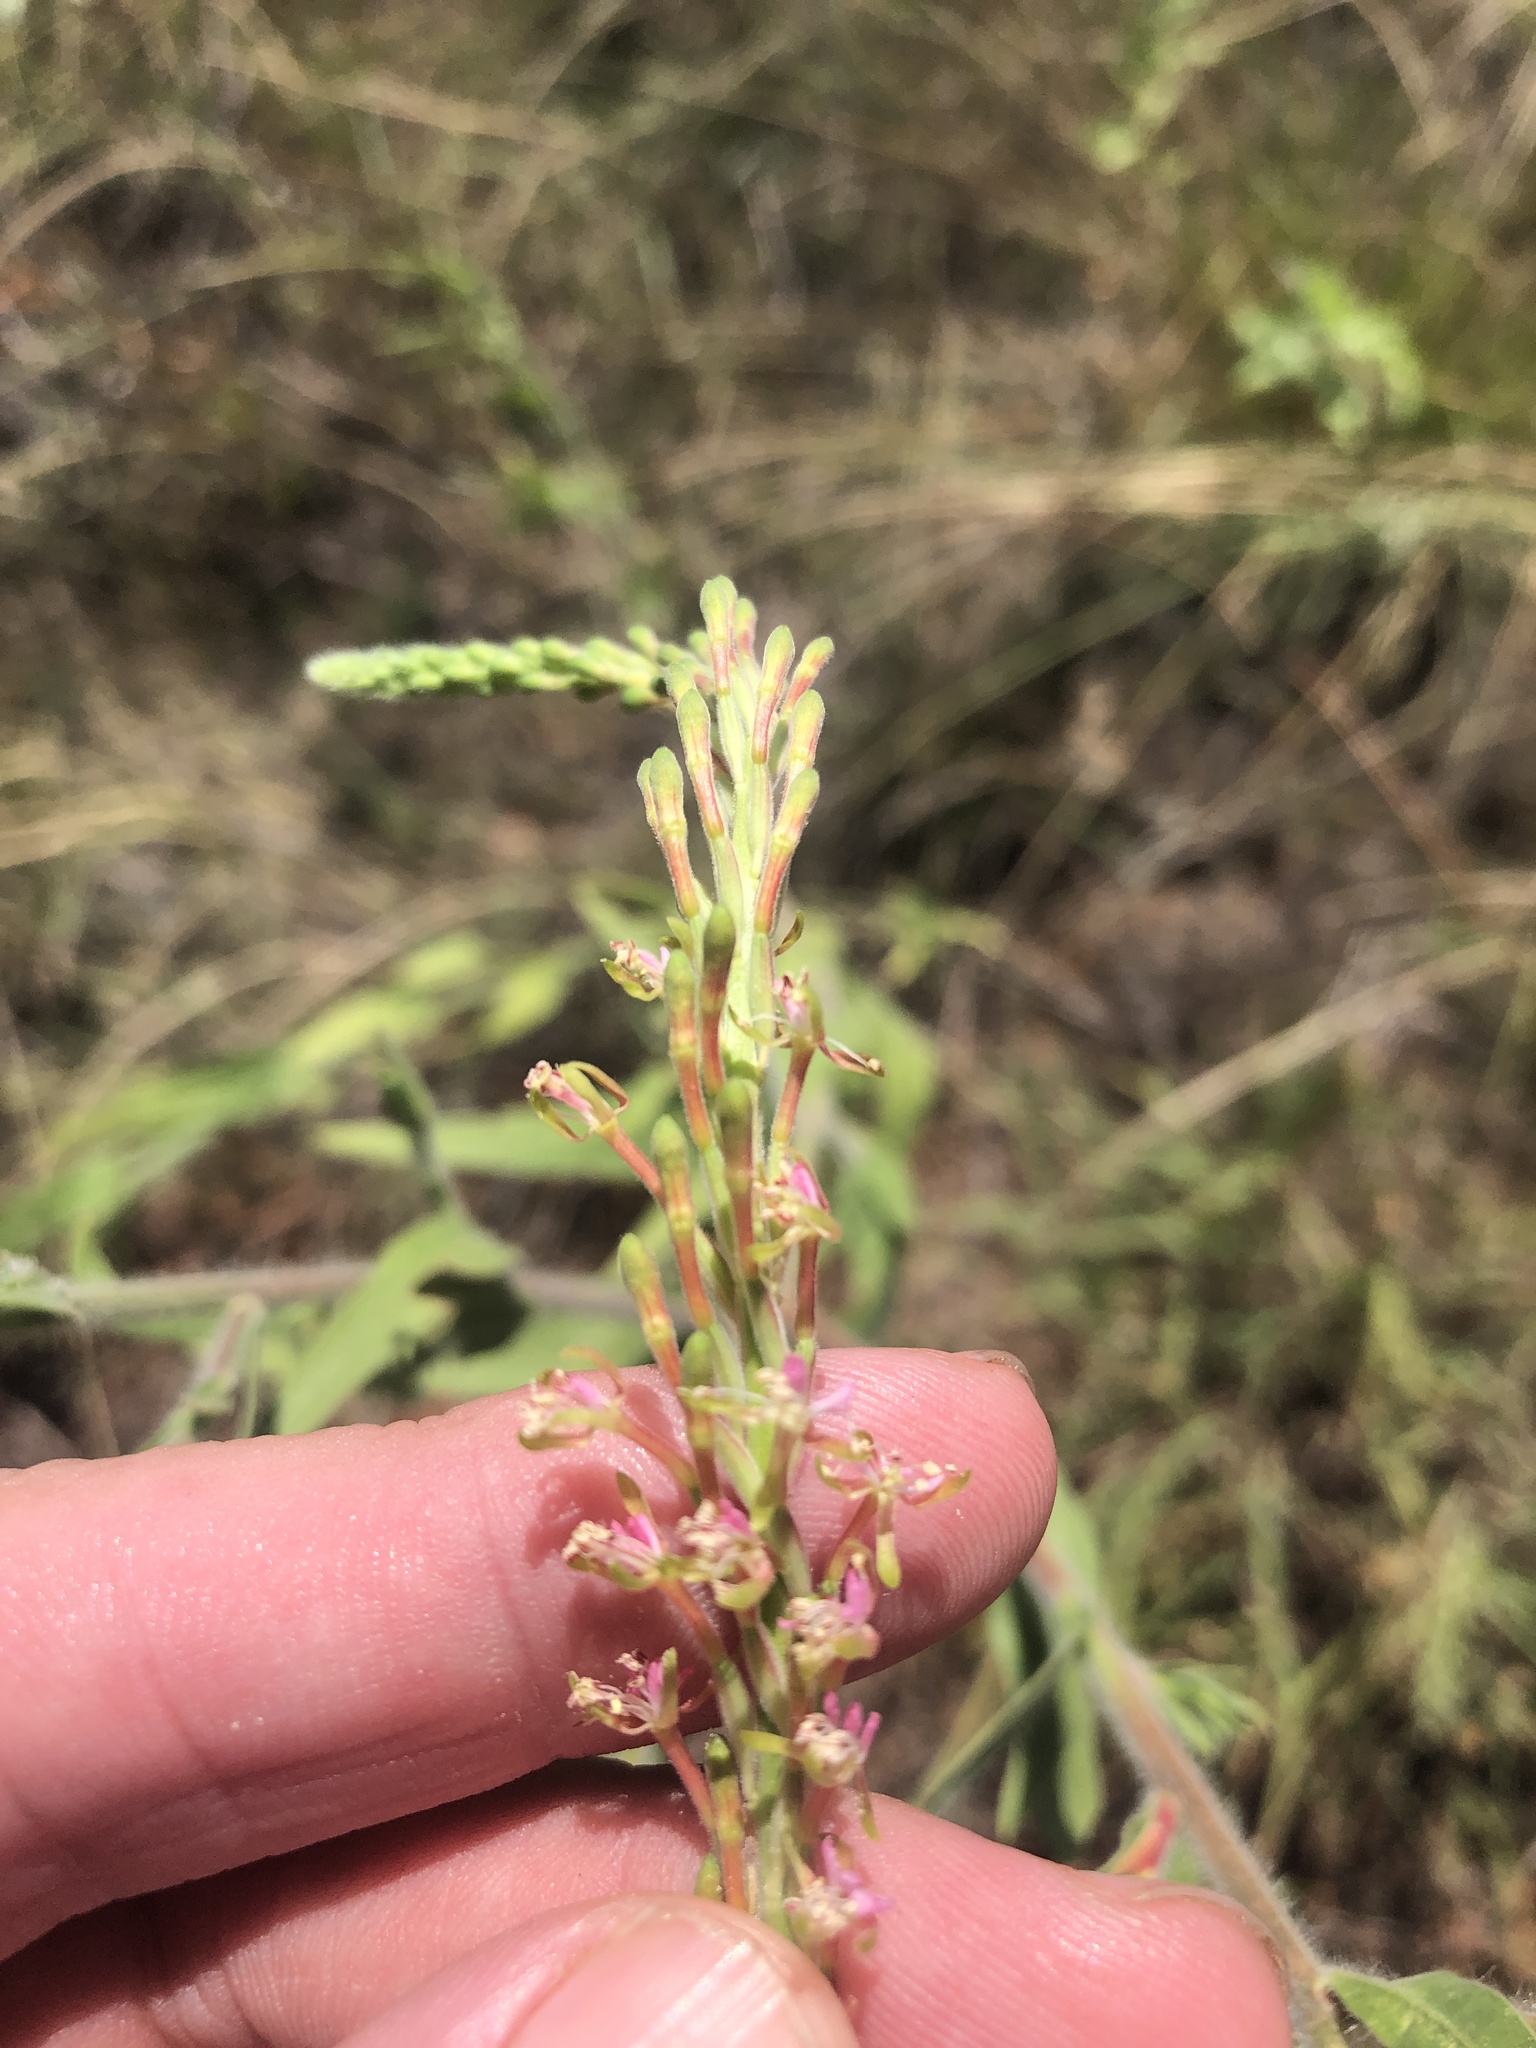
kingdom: Plantae
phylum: Tracheophyta
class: Magnoliopsida
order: Myrtales
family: Onagraceae
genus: Oenothera
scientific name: Oenothera curtiflora
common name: Velvetweed
